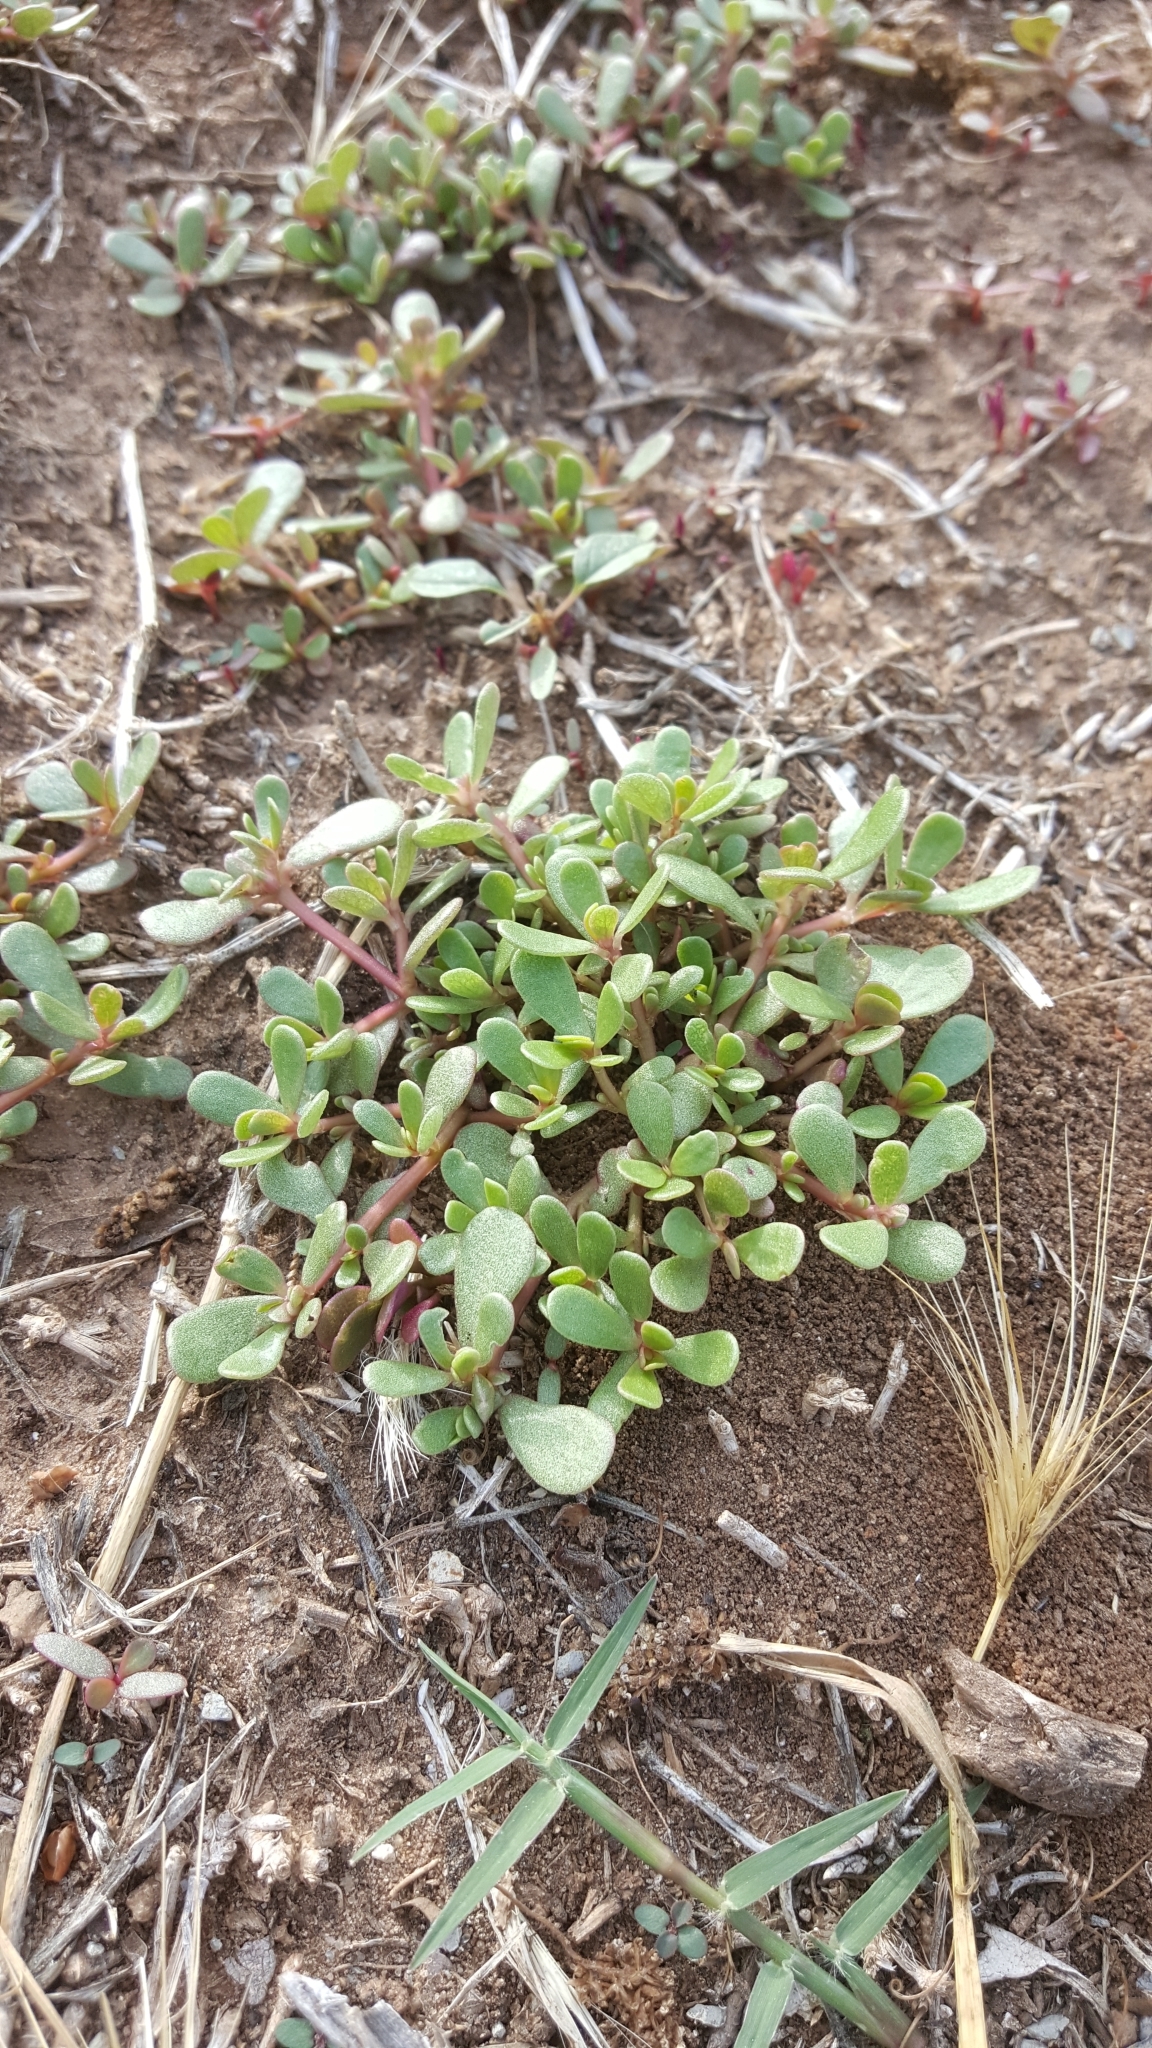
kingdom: Plantae
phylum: Tracheophyta
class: Magnoliopsida
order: Caryophyllales
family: Portulacaceae
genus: Portulaca
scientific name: Portulaca oleracea
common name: Common purslane
